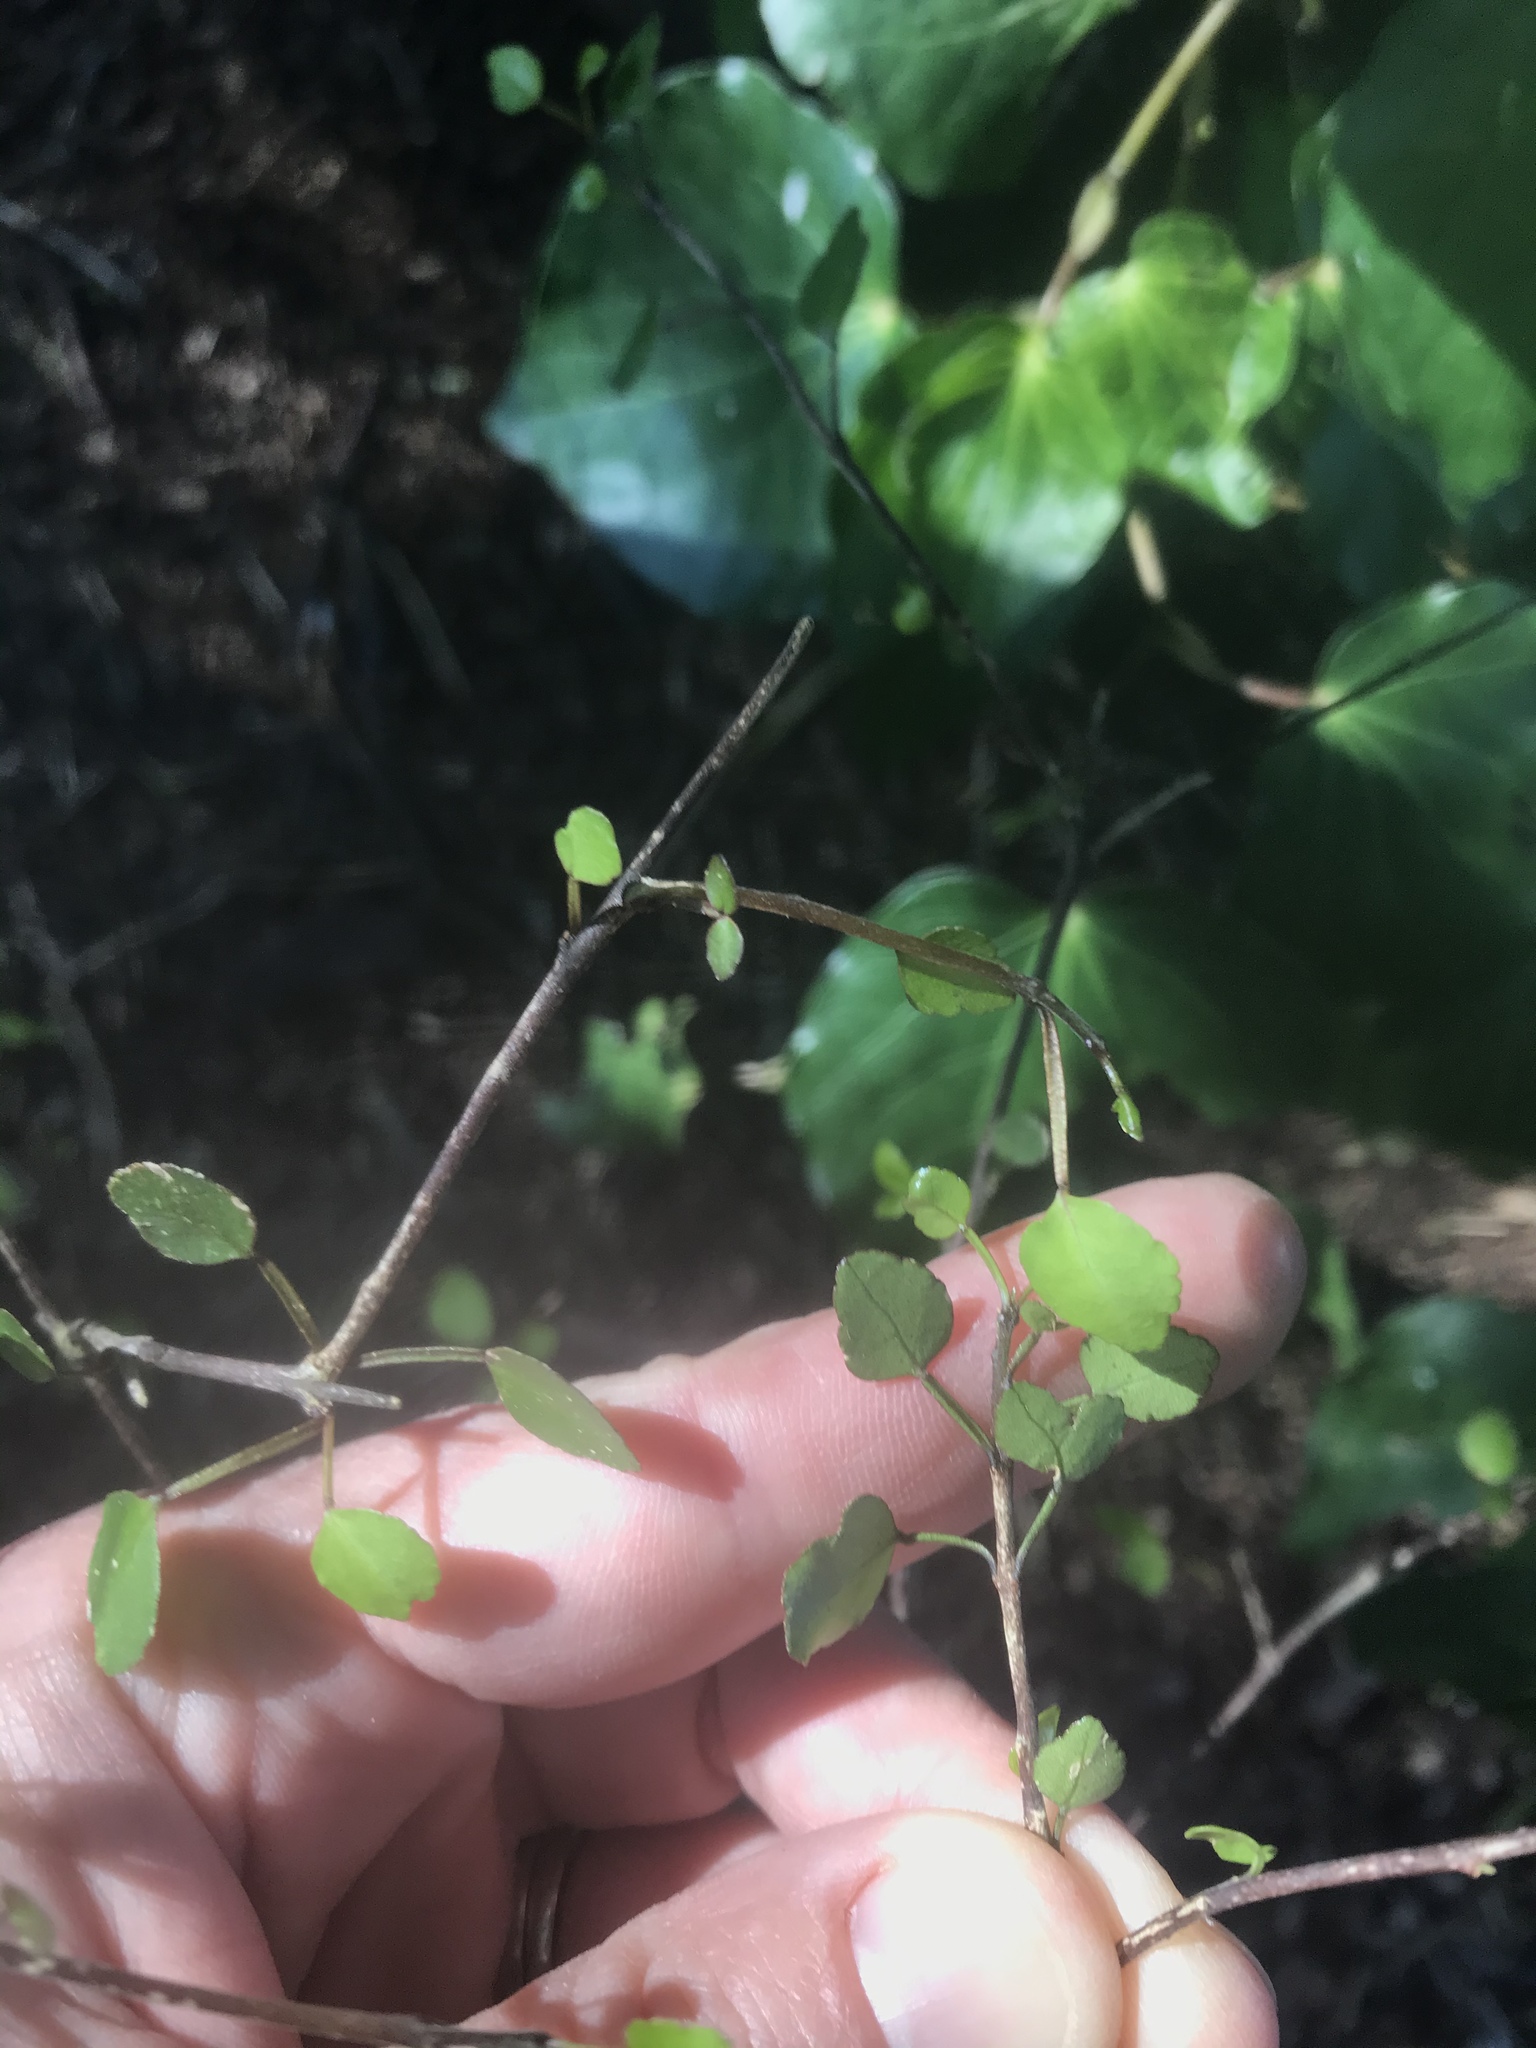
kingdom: Plantae
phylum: Tracheophyta
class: Magnoliopsida
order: Sapindales
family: Rutaceae
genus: Melicope
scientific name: Melicope simplex
